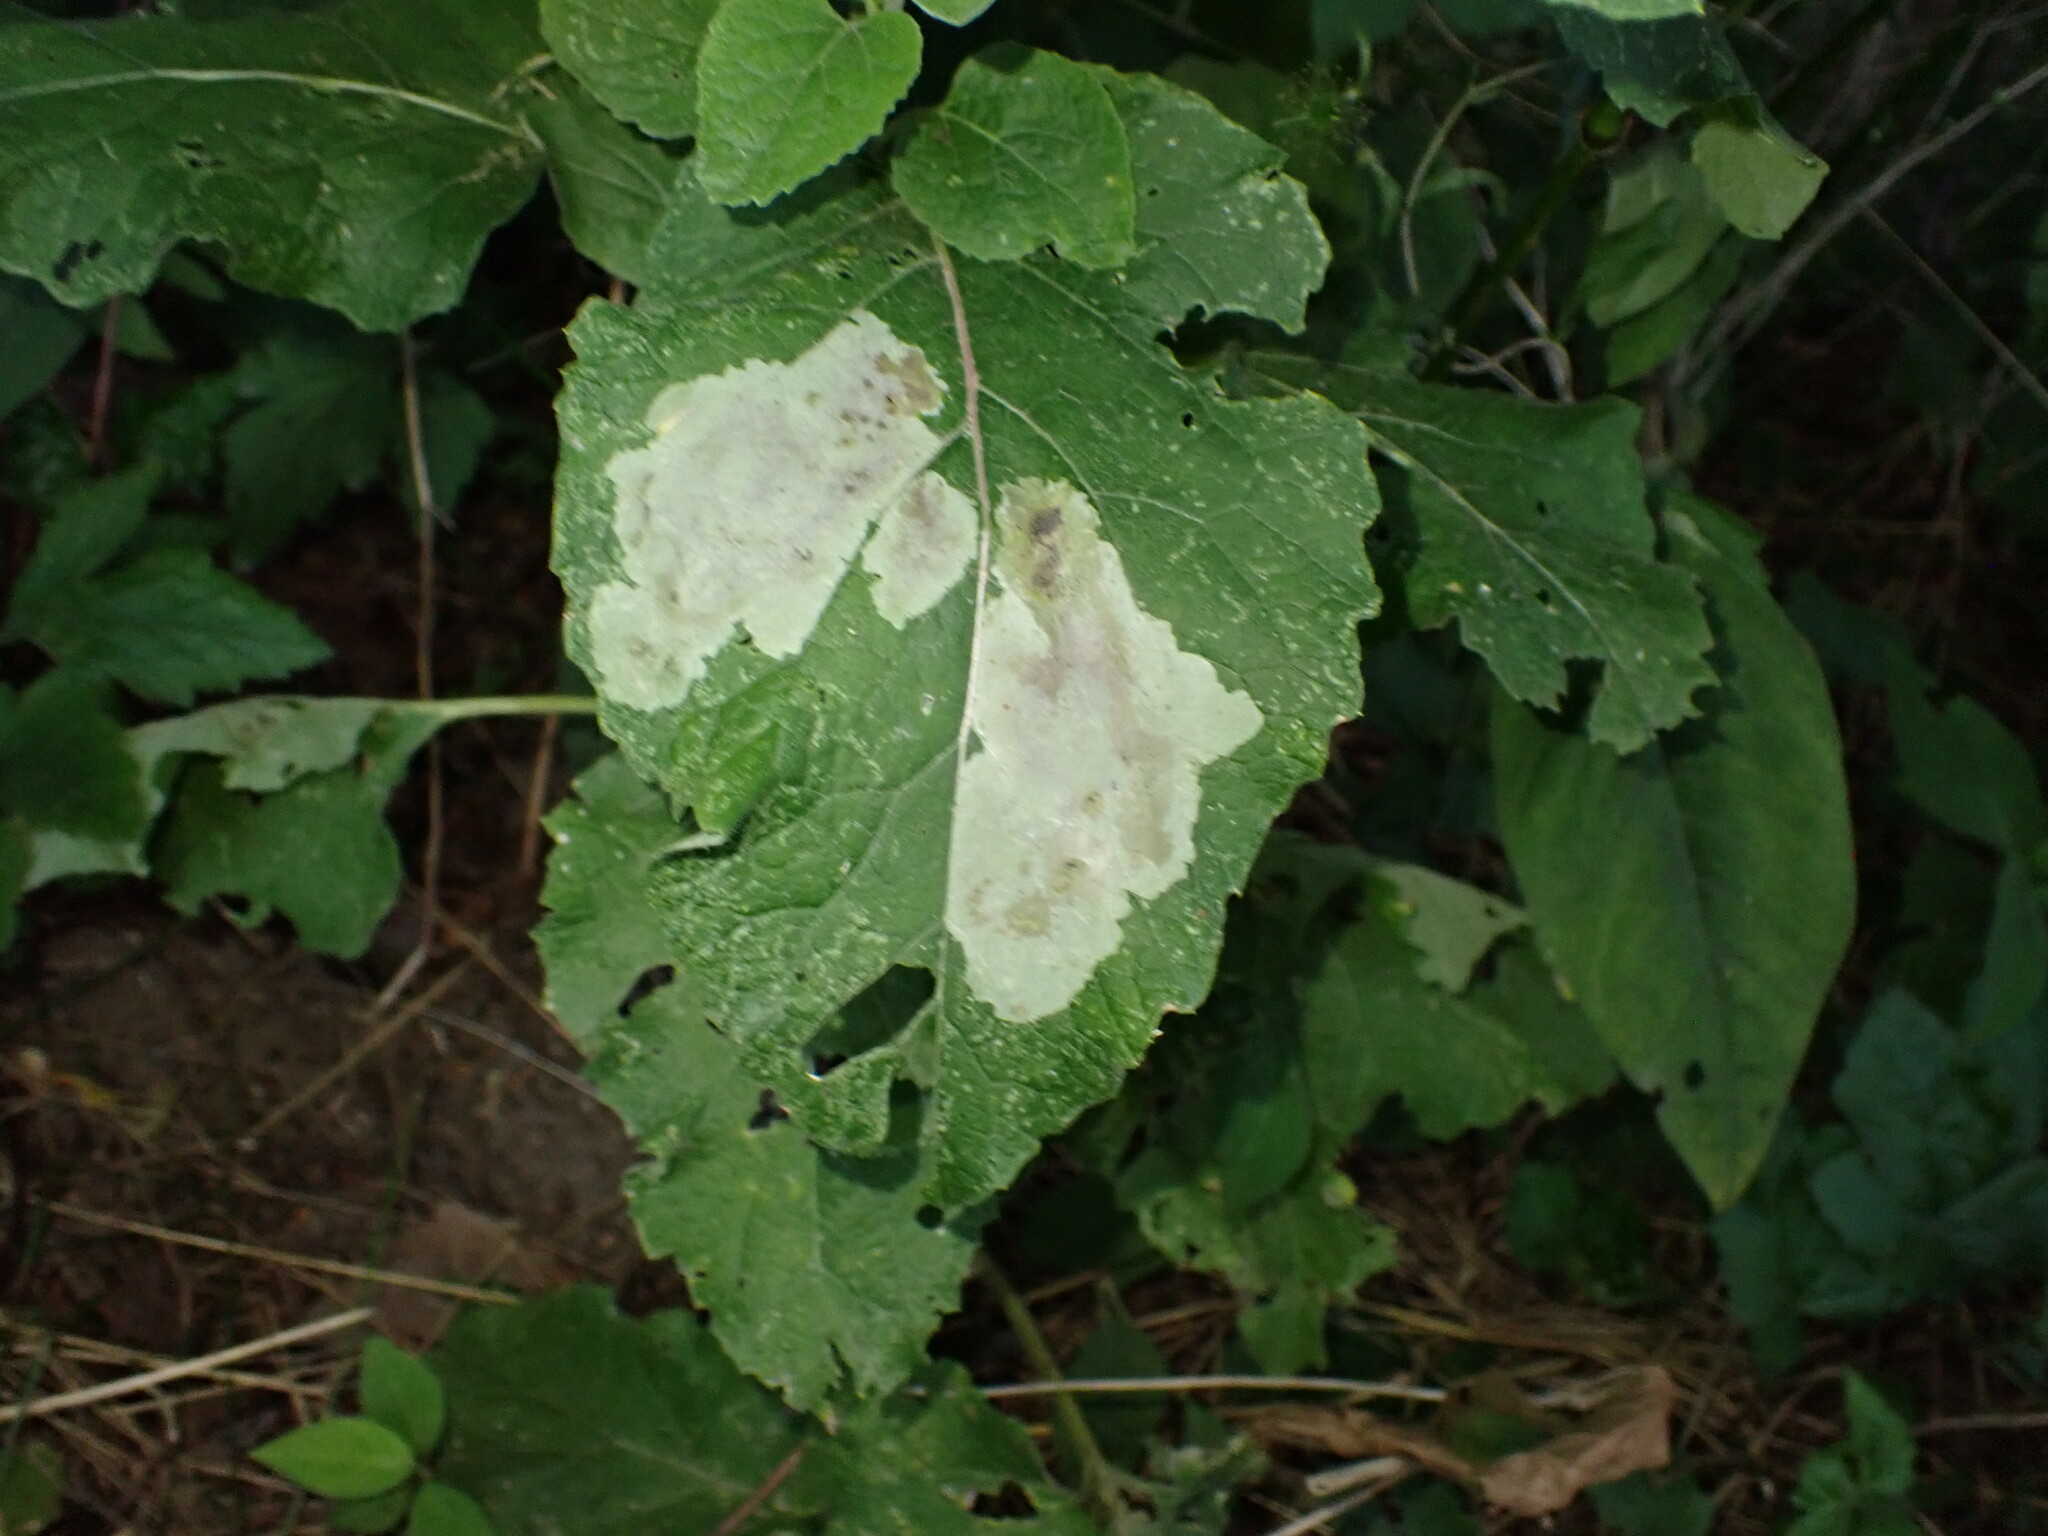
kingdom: Animalia
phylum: Arthropoda
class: Insecta
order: Diptera
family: Agromyzidae
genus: Calycomyza
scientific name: Calycomyza flavinotum
